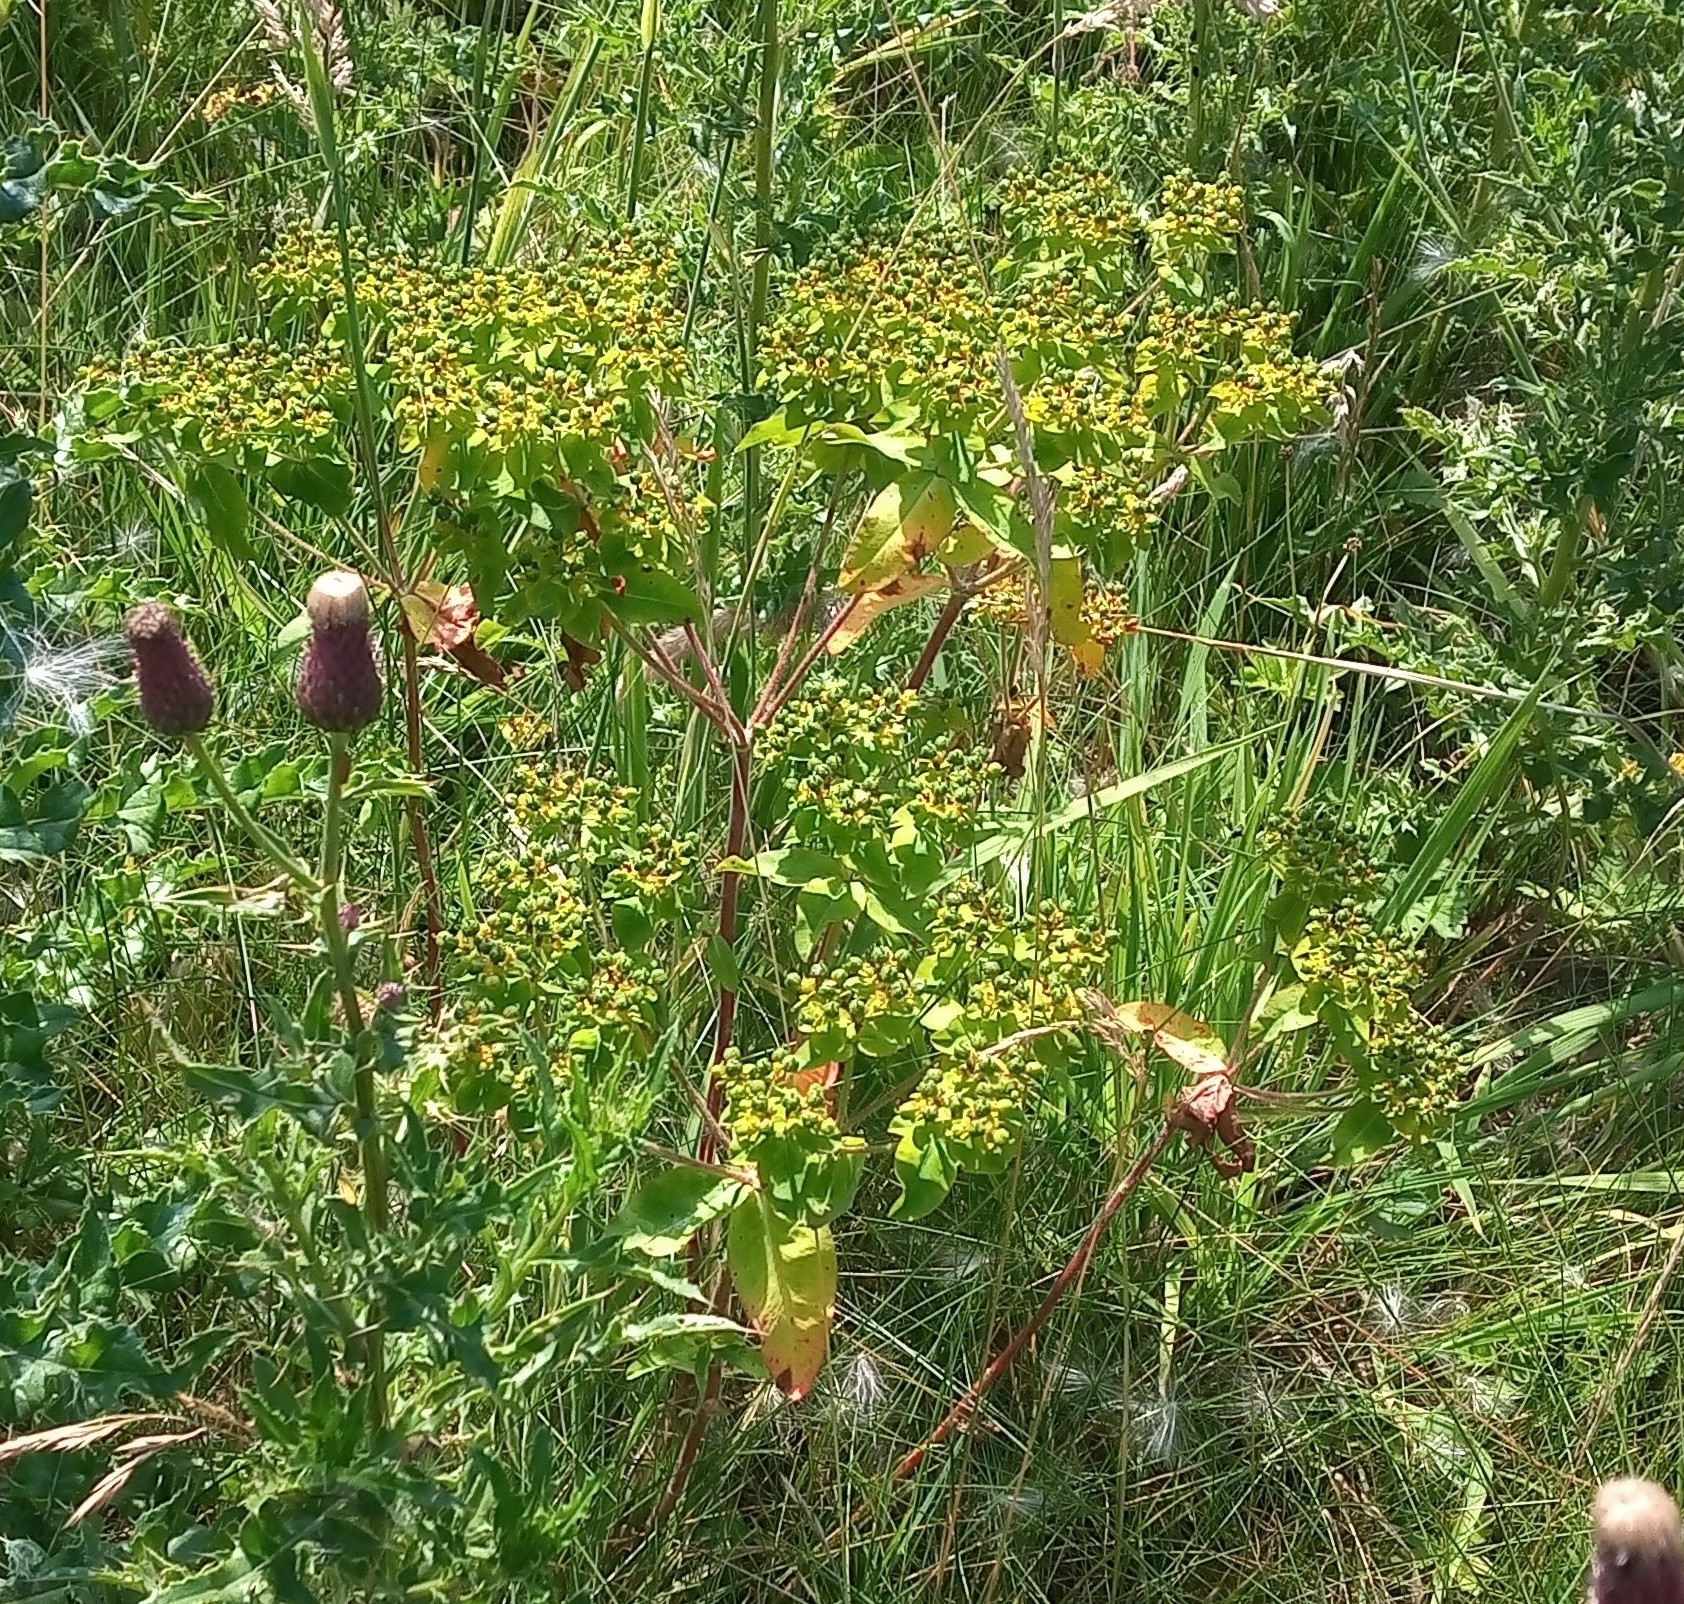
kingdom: Plantae
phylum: Tracheophyta
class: Magnoliopsida
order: Malpighiales
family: Euphorbiaceae
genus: Euphorbia
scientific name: Euphorbia oblongata
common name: Balkan spurge
